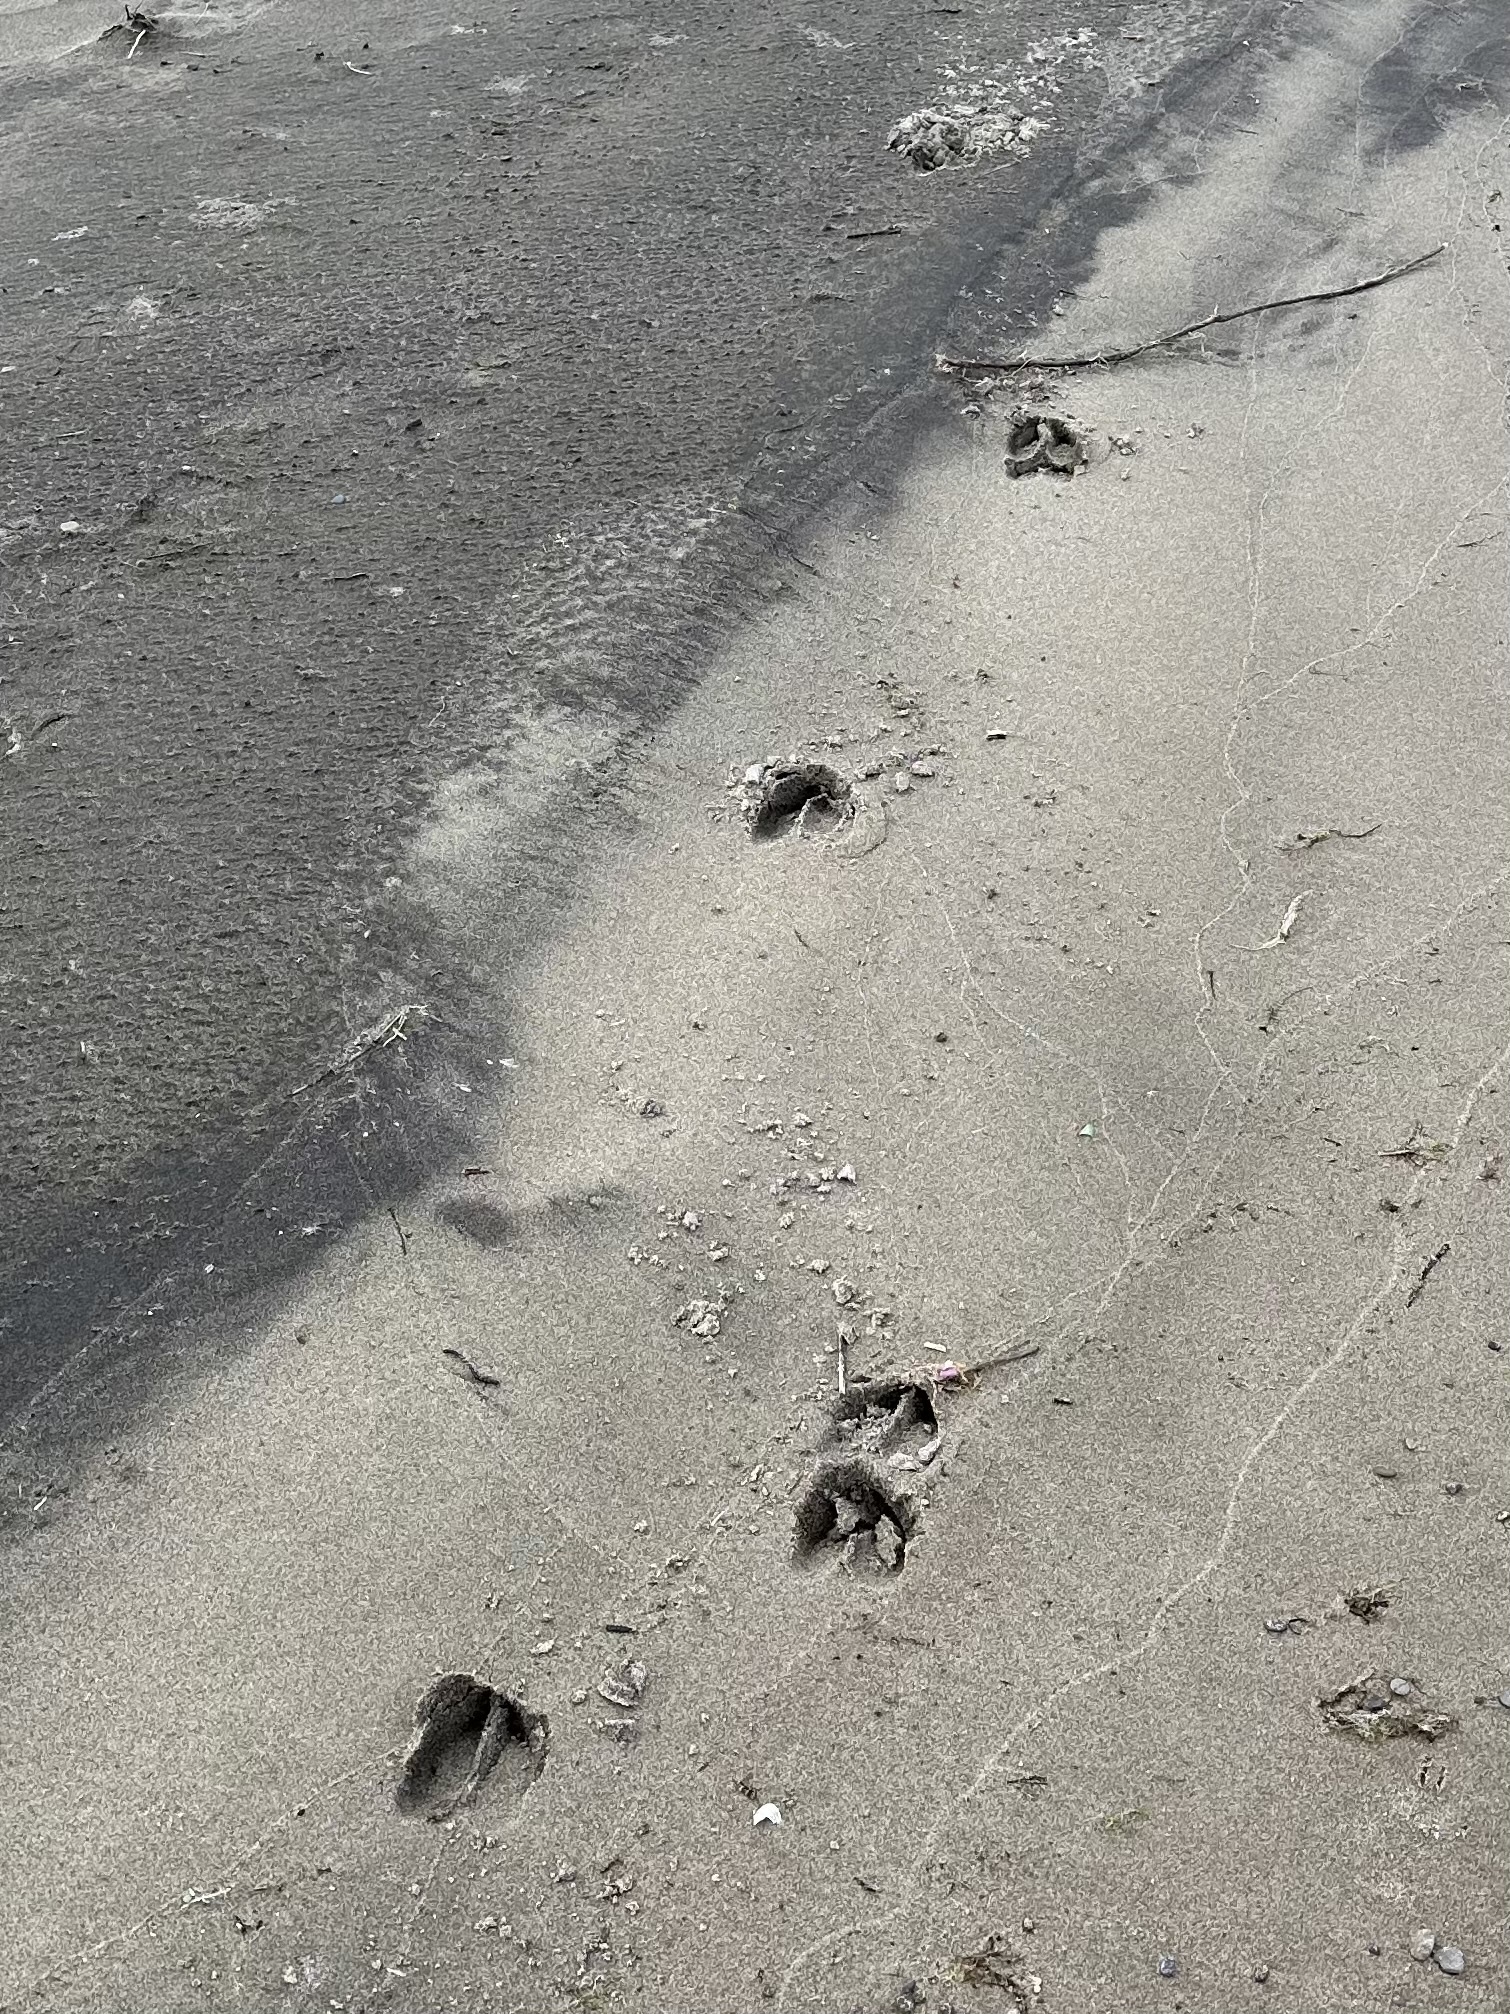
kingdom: Animalia
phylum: Chordata
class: Mammalia
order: Artiodactyla
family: Cervidae
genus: Odocoileus
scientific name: Odocoileus virginianus
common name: White-tailed deer
